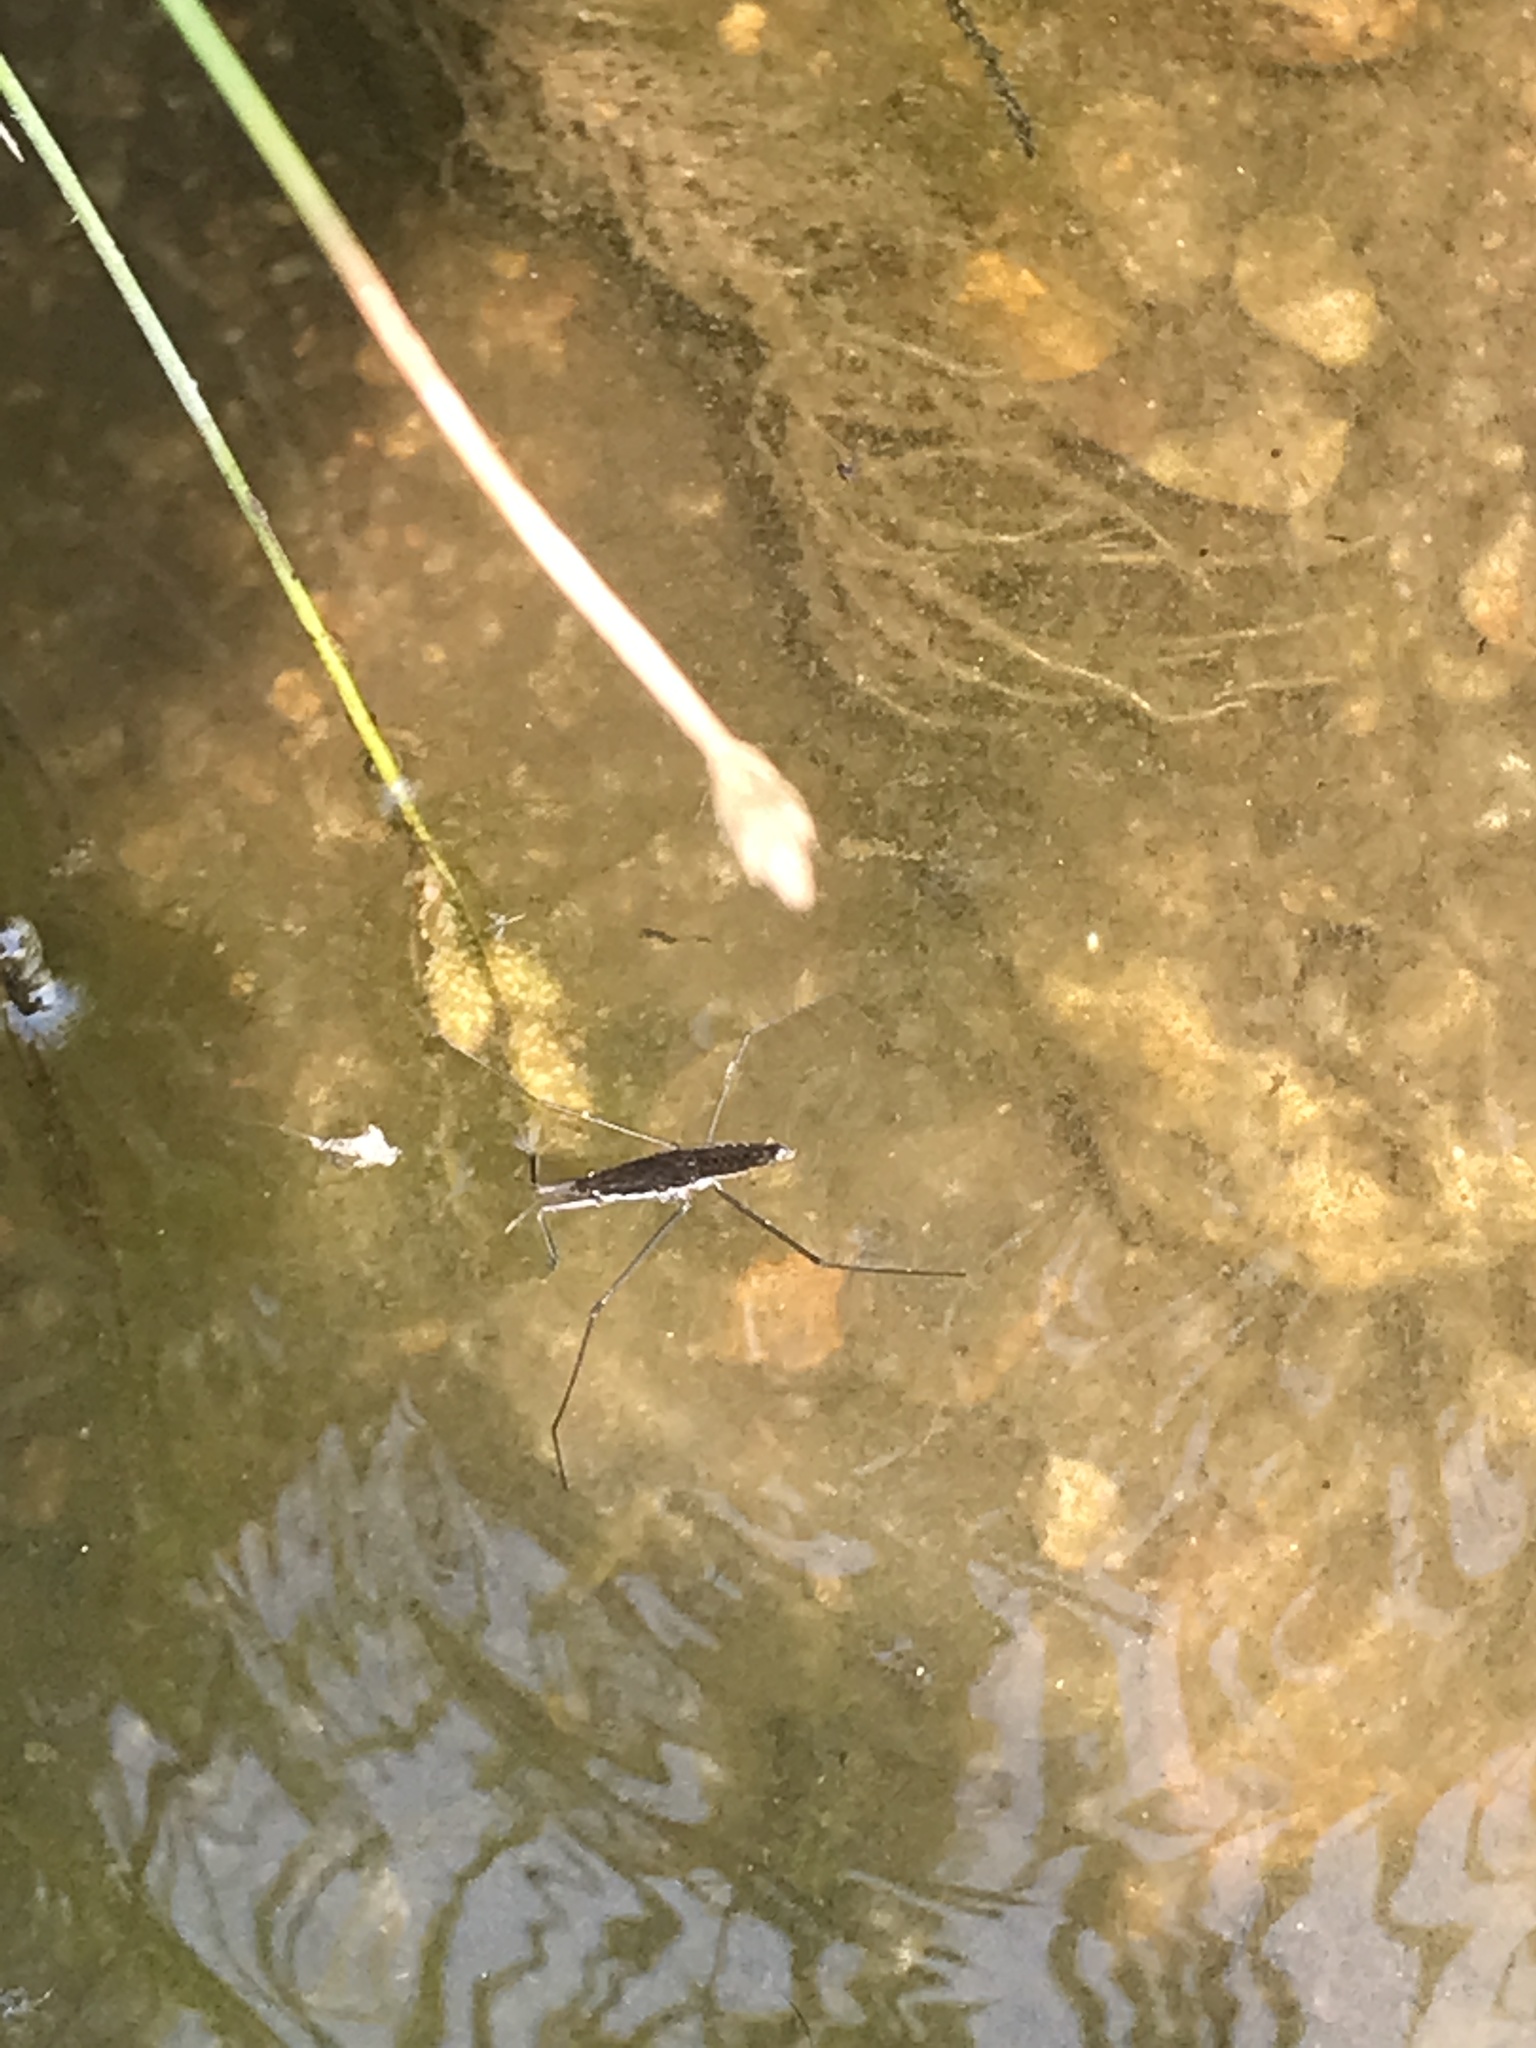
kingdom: Animalia
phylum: Arthropoda
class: Insecta
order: Hemiptera
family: Gerridae
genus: Aquarius
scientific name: Aquarius remigis
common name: Common water strider
